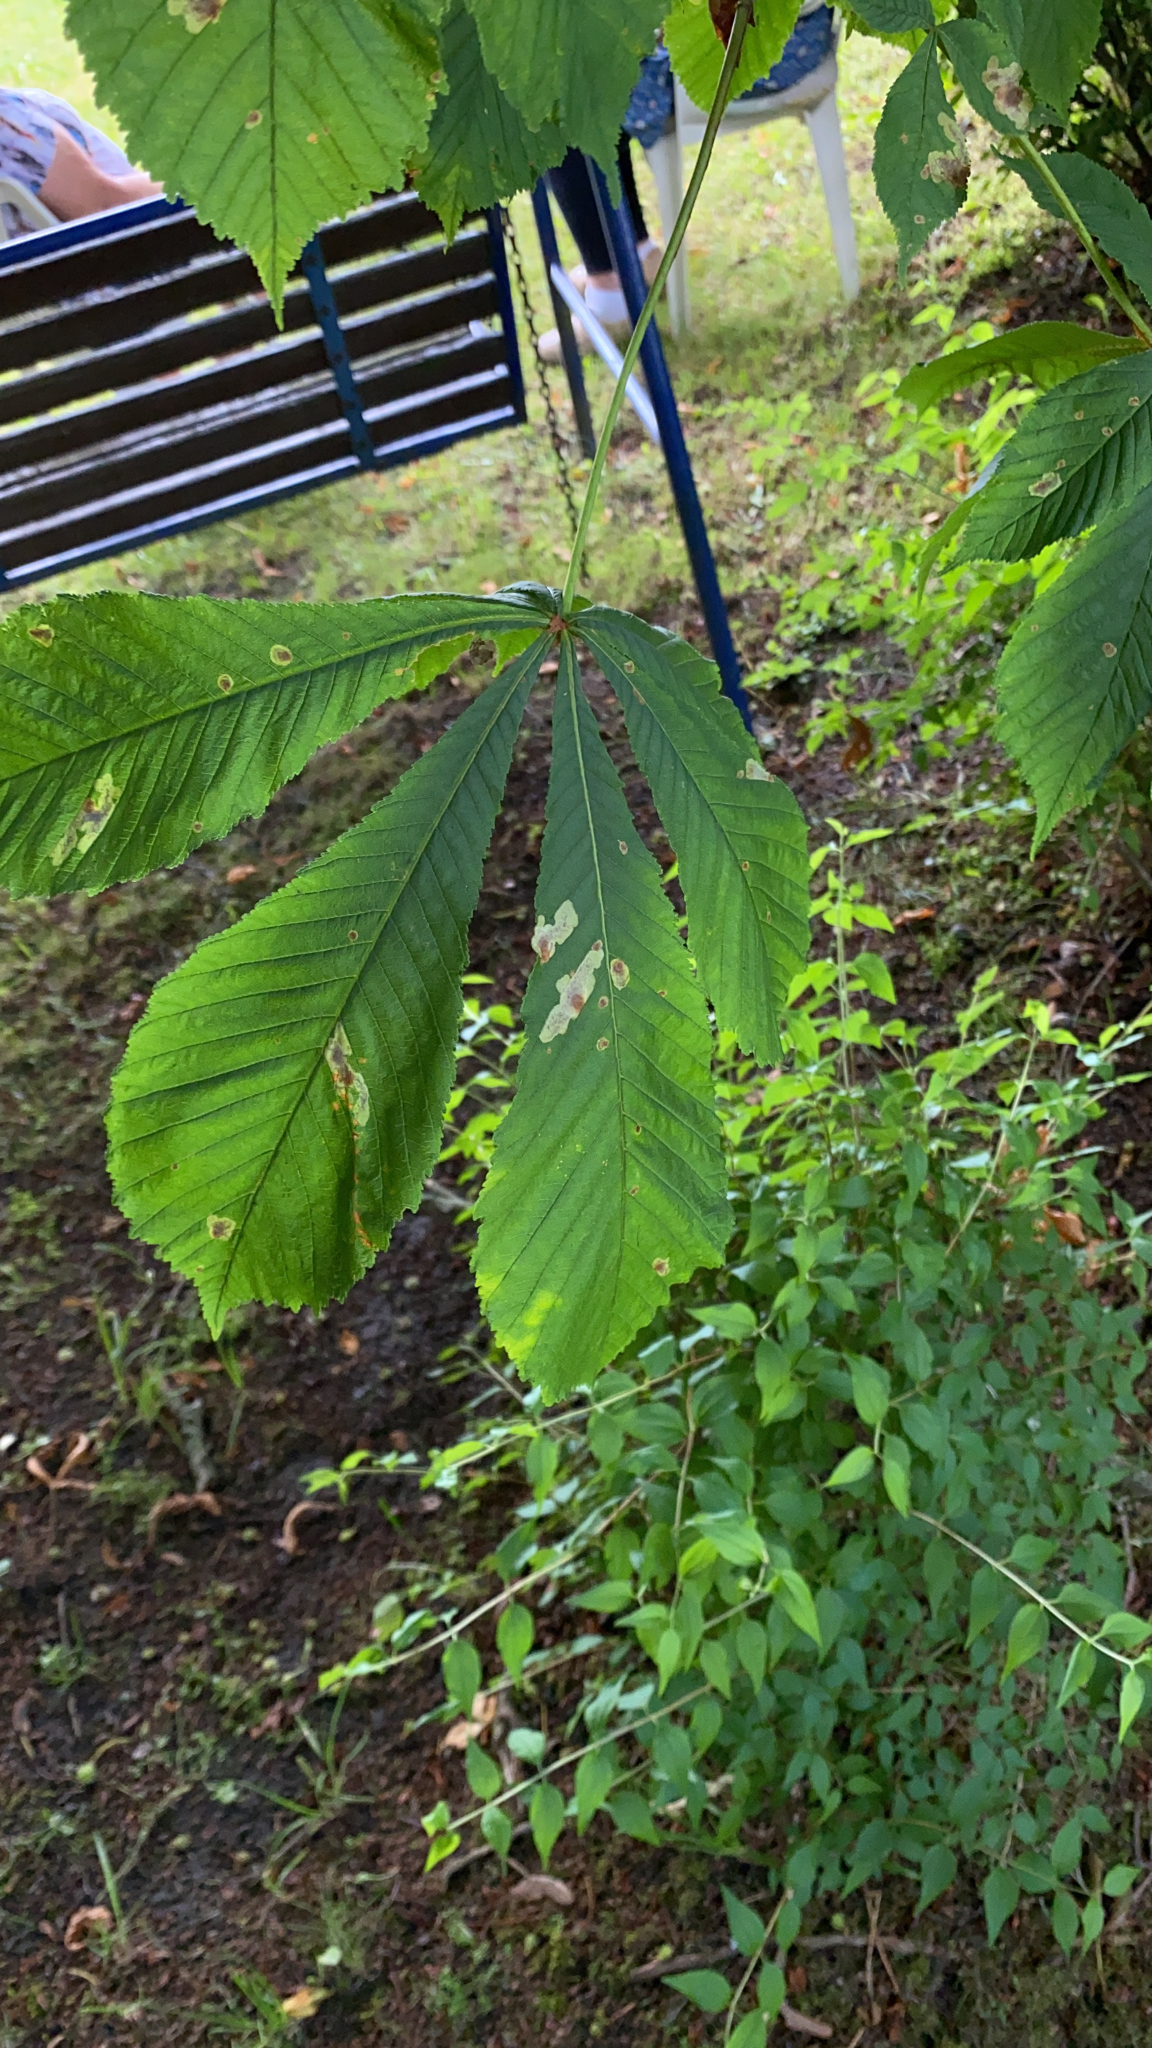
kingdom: Plantae
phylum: Tracheophyta
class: Magnoliopsida
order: Sapindales
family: Sapindaceae
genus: Aesculus
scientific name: Aesculus hippocastanum
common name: Horse-chestnut
